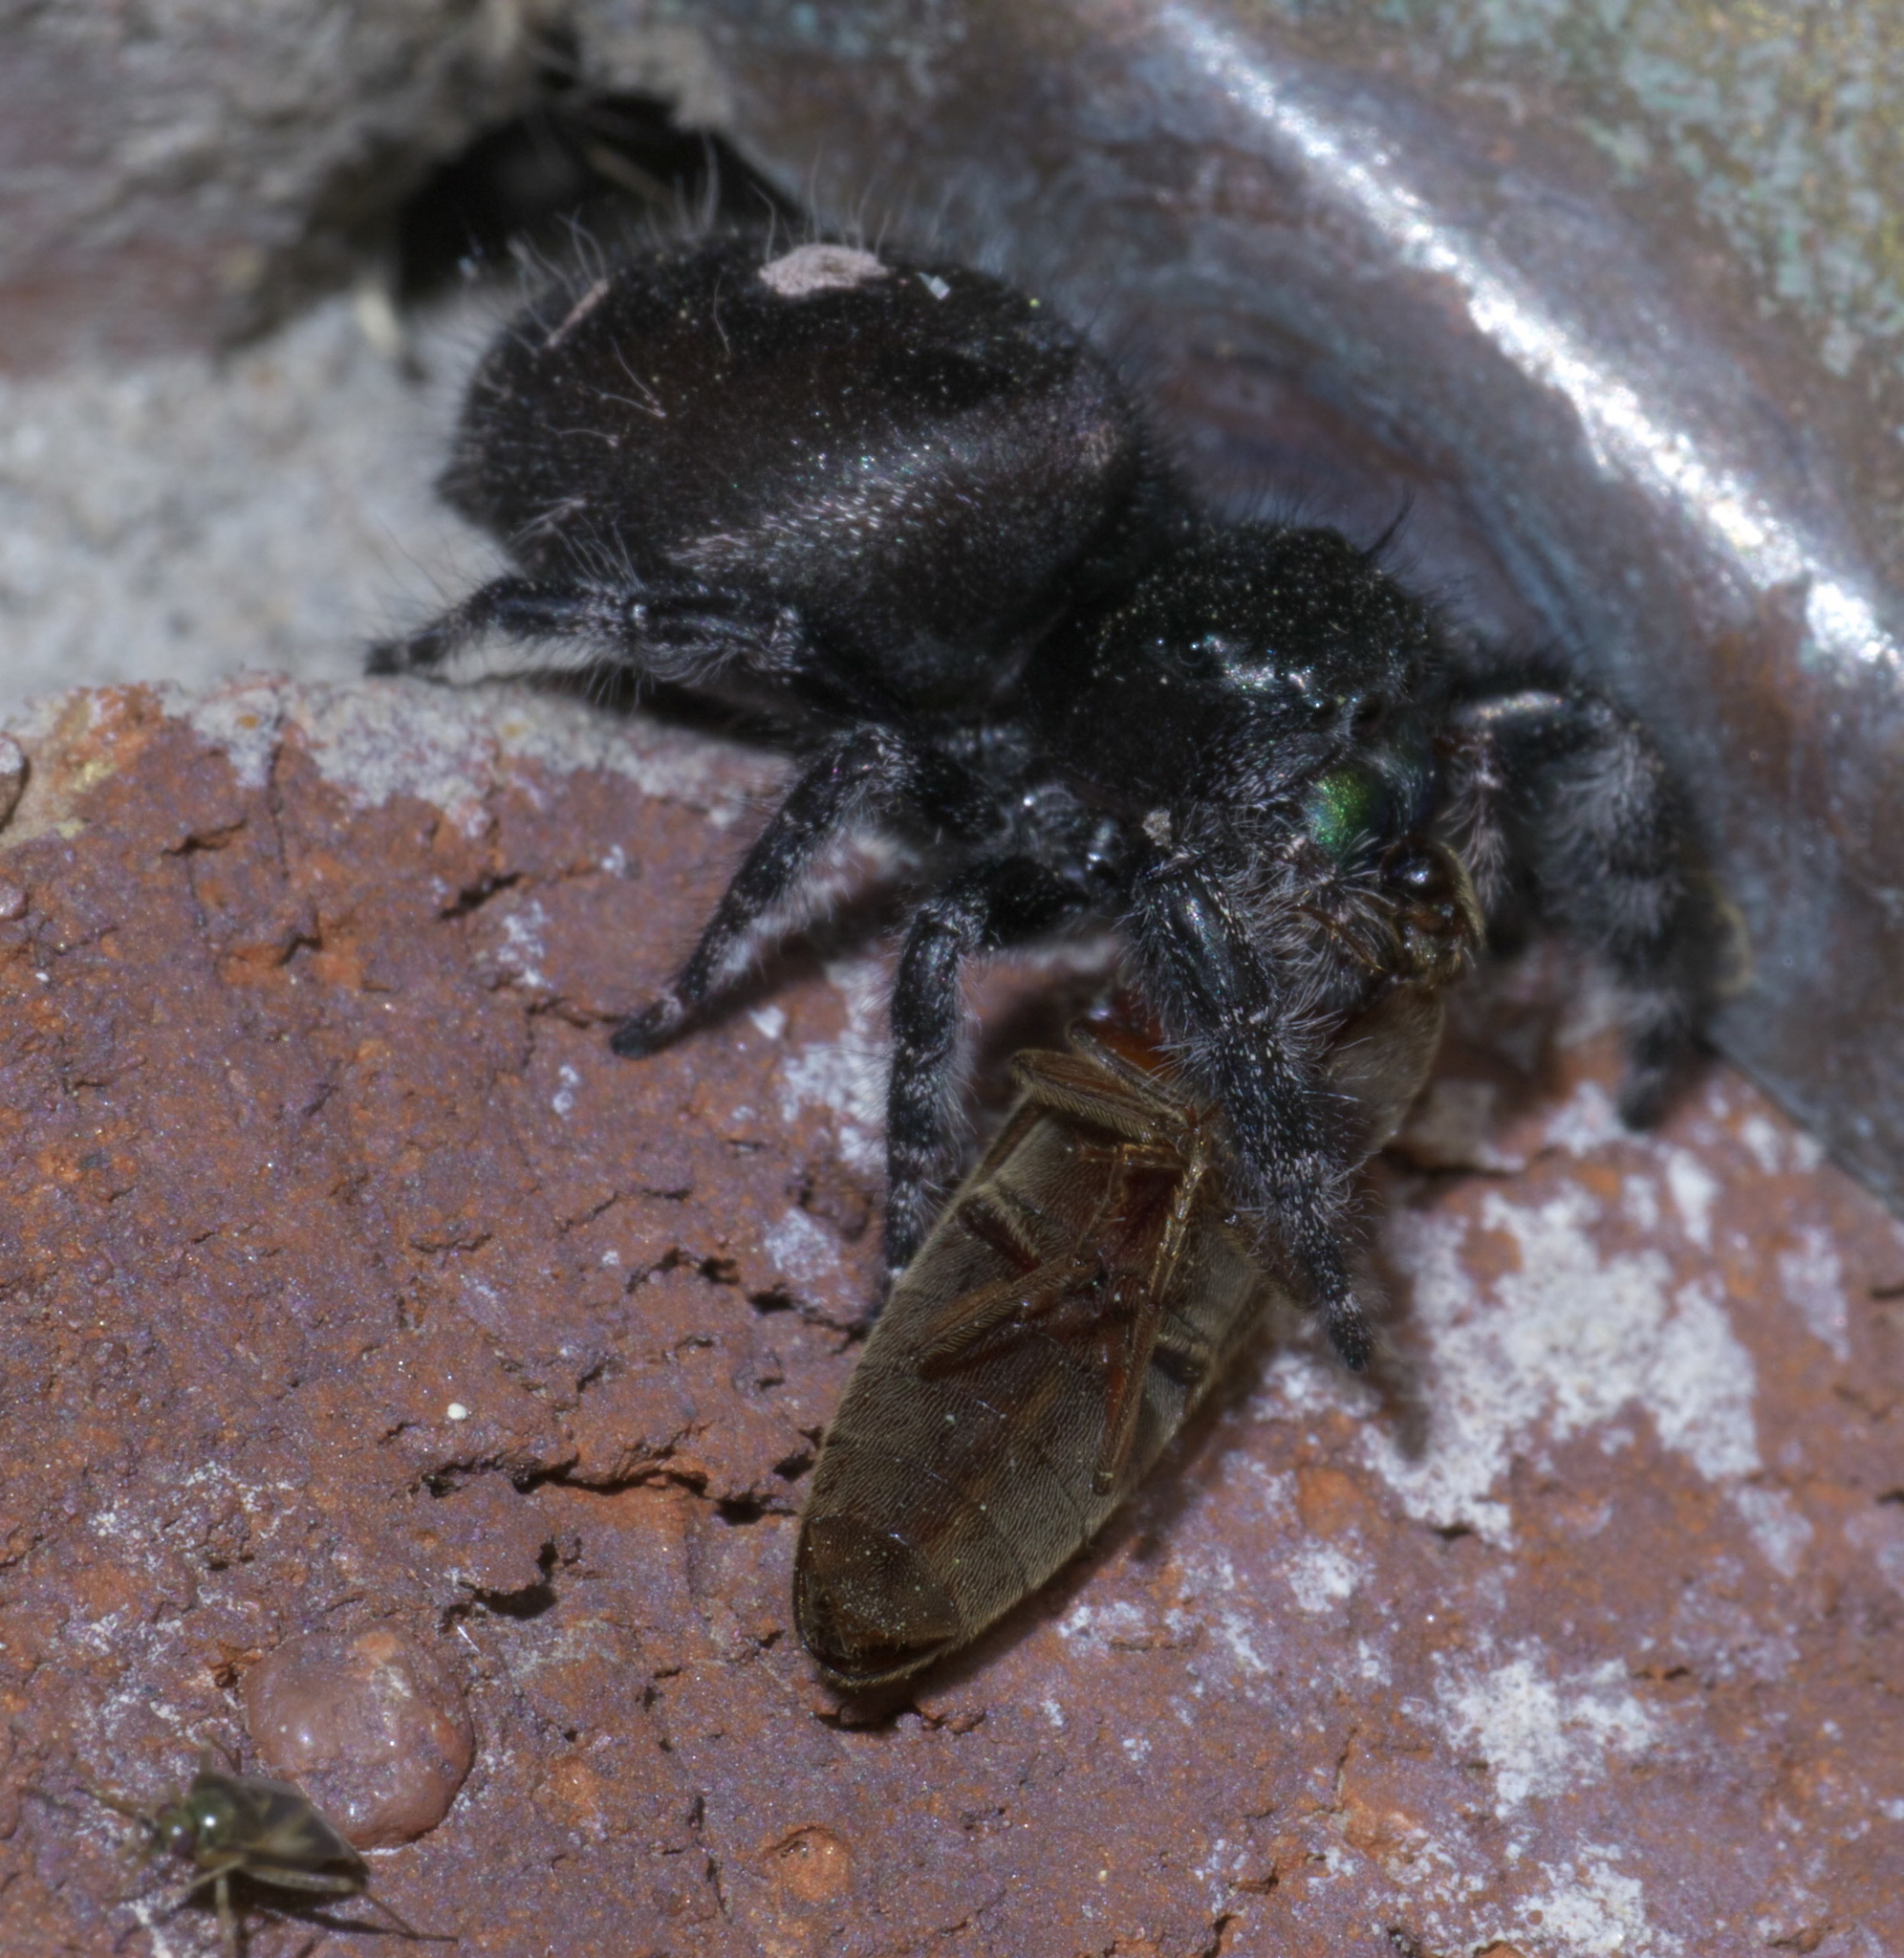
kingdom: Animalia
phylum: Arthropoda
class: Arachnida
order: Araneae
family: Salticidae
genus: Phidippus
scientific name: Phidippus audax
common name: Bold jumper
